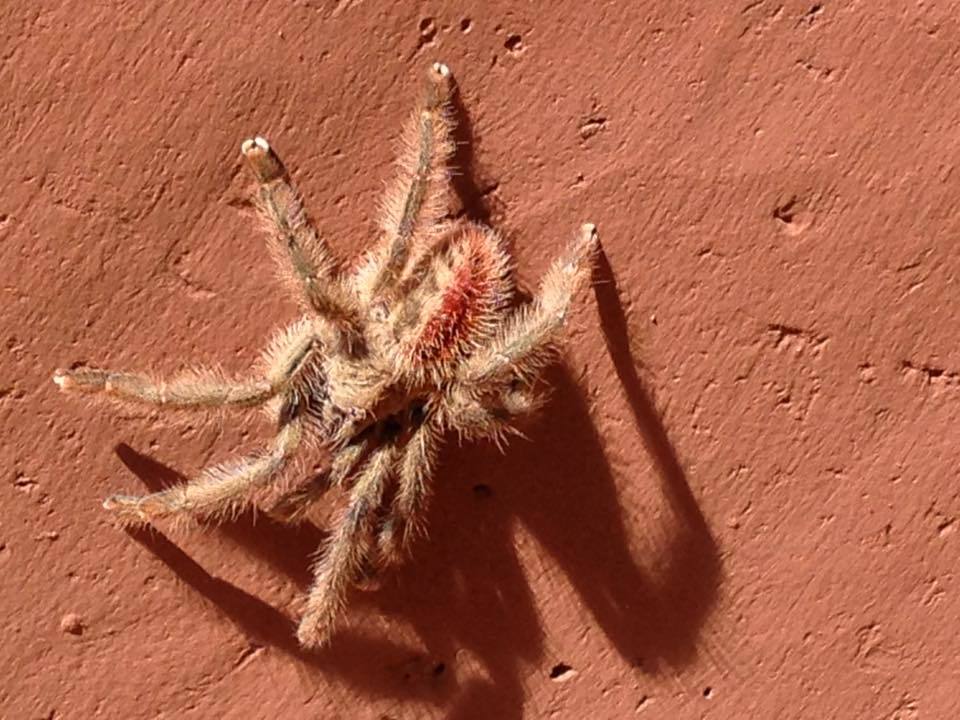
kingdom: Animalia
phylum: Arthropoda
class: Arachnida
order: Araneae
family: Theraphosidae
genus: Iridopelma
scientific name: Iridopelma hirsutum
